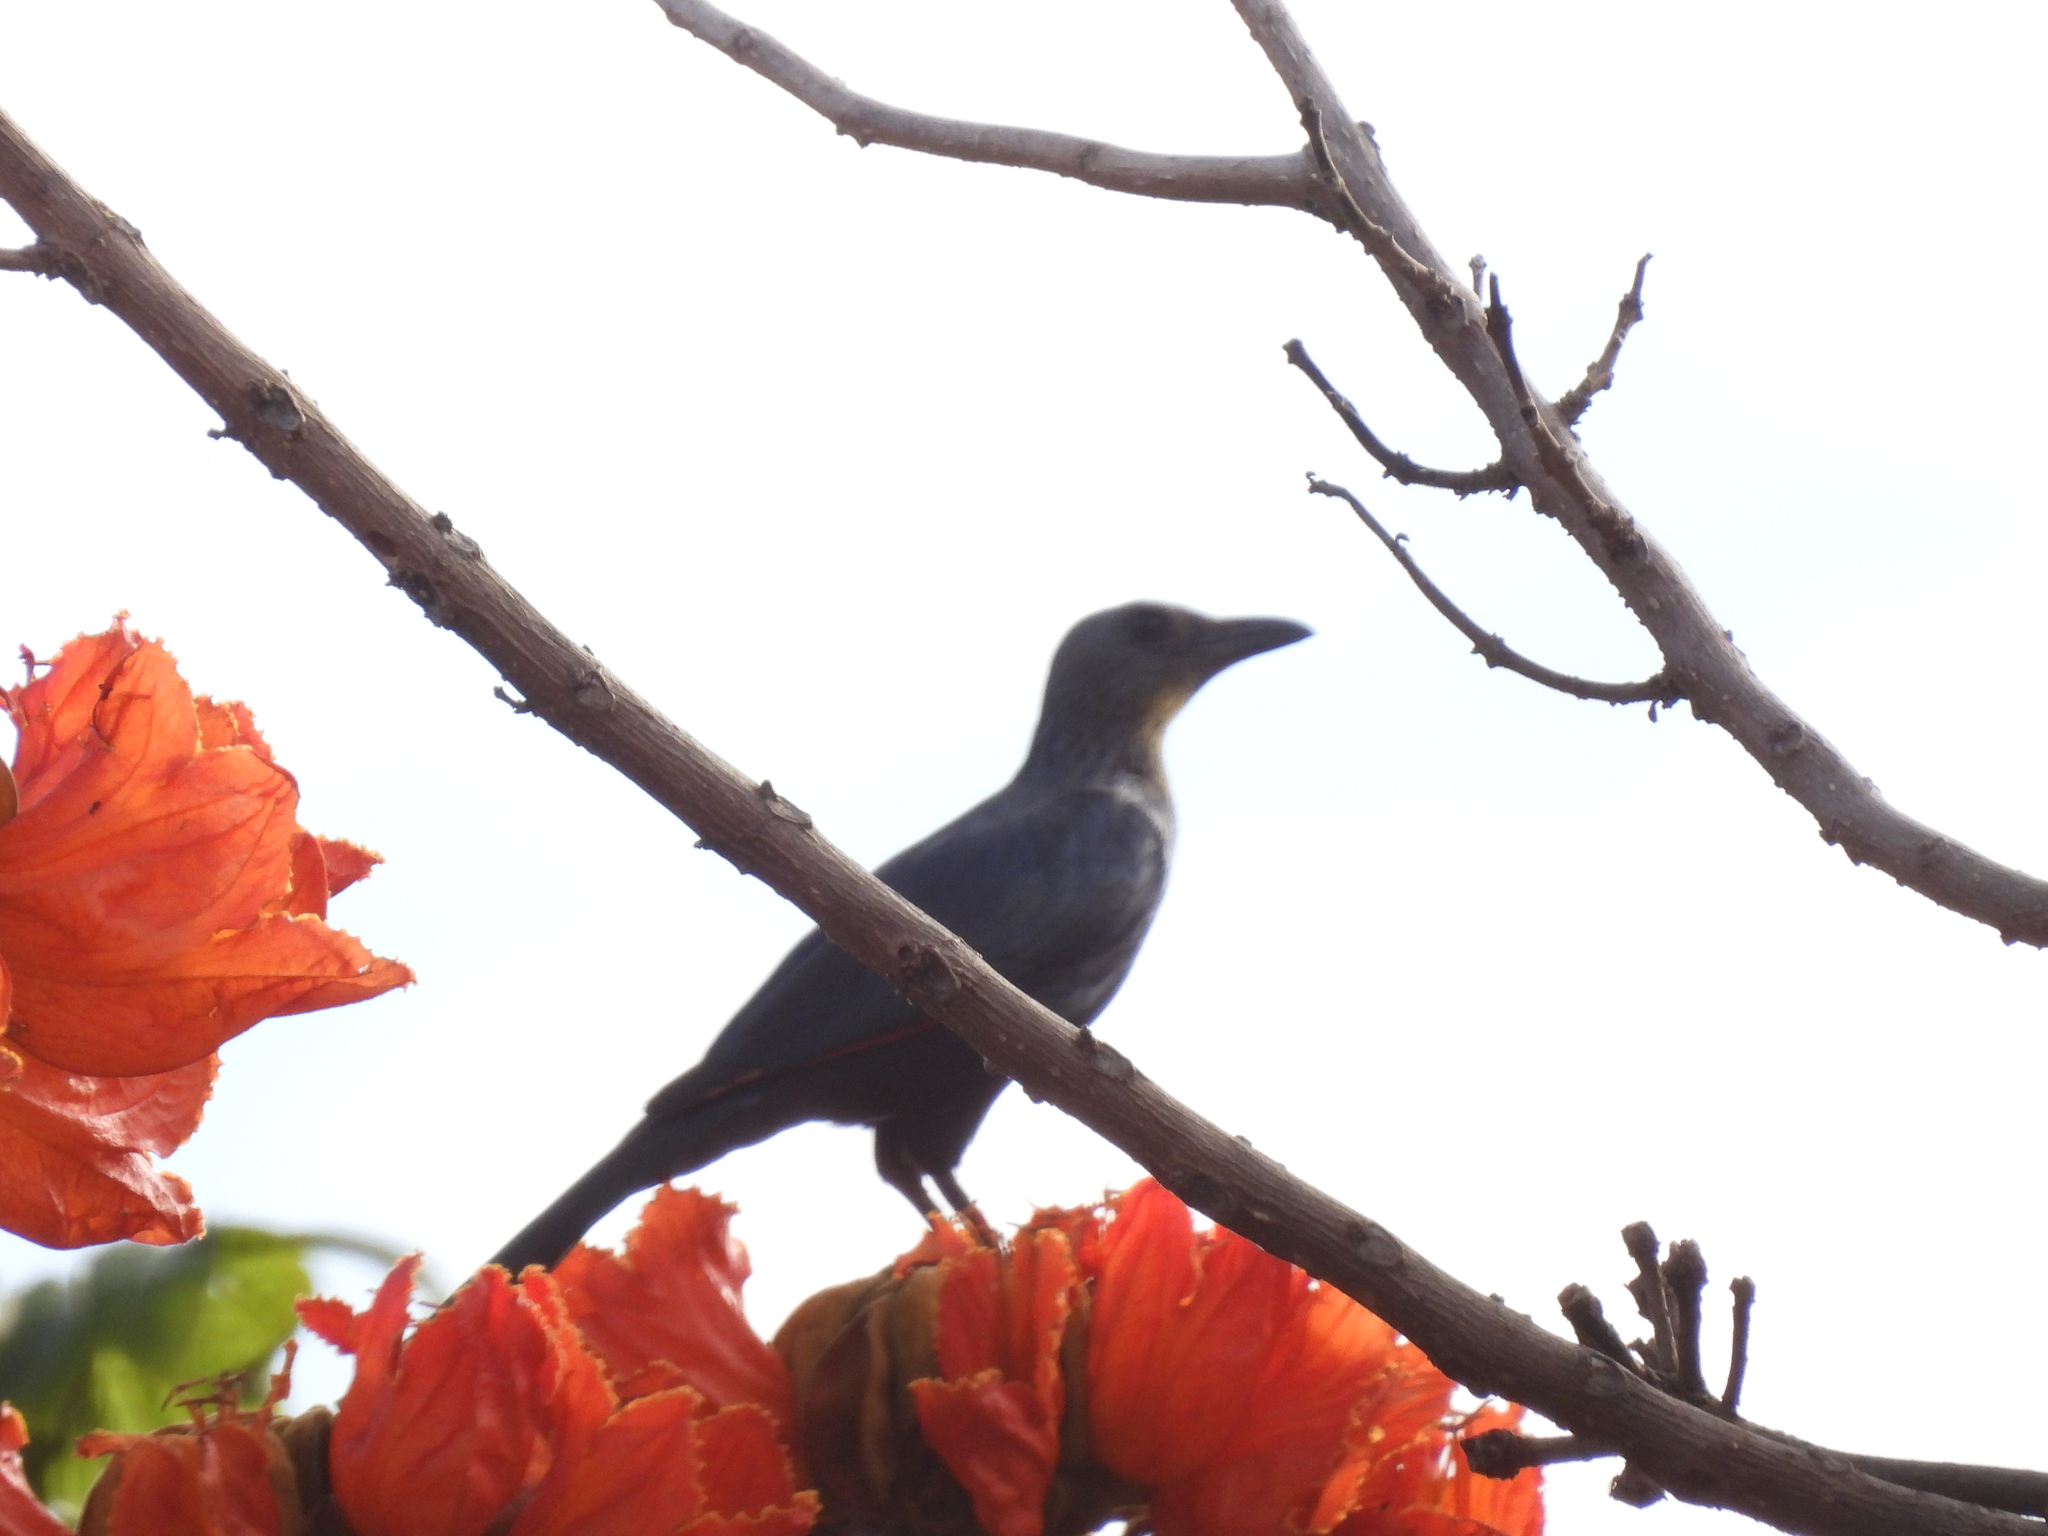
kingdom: Animalia
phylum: Chordata
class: Aves
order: Passeriformes
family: Sturnidae
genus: Onychognathus
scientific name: Onychognathus morio
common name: Red-winged starling
